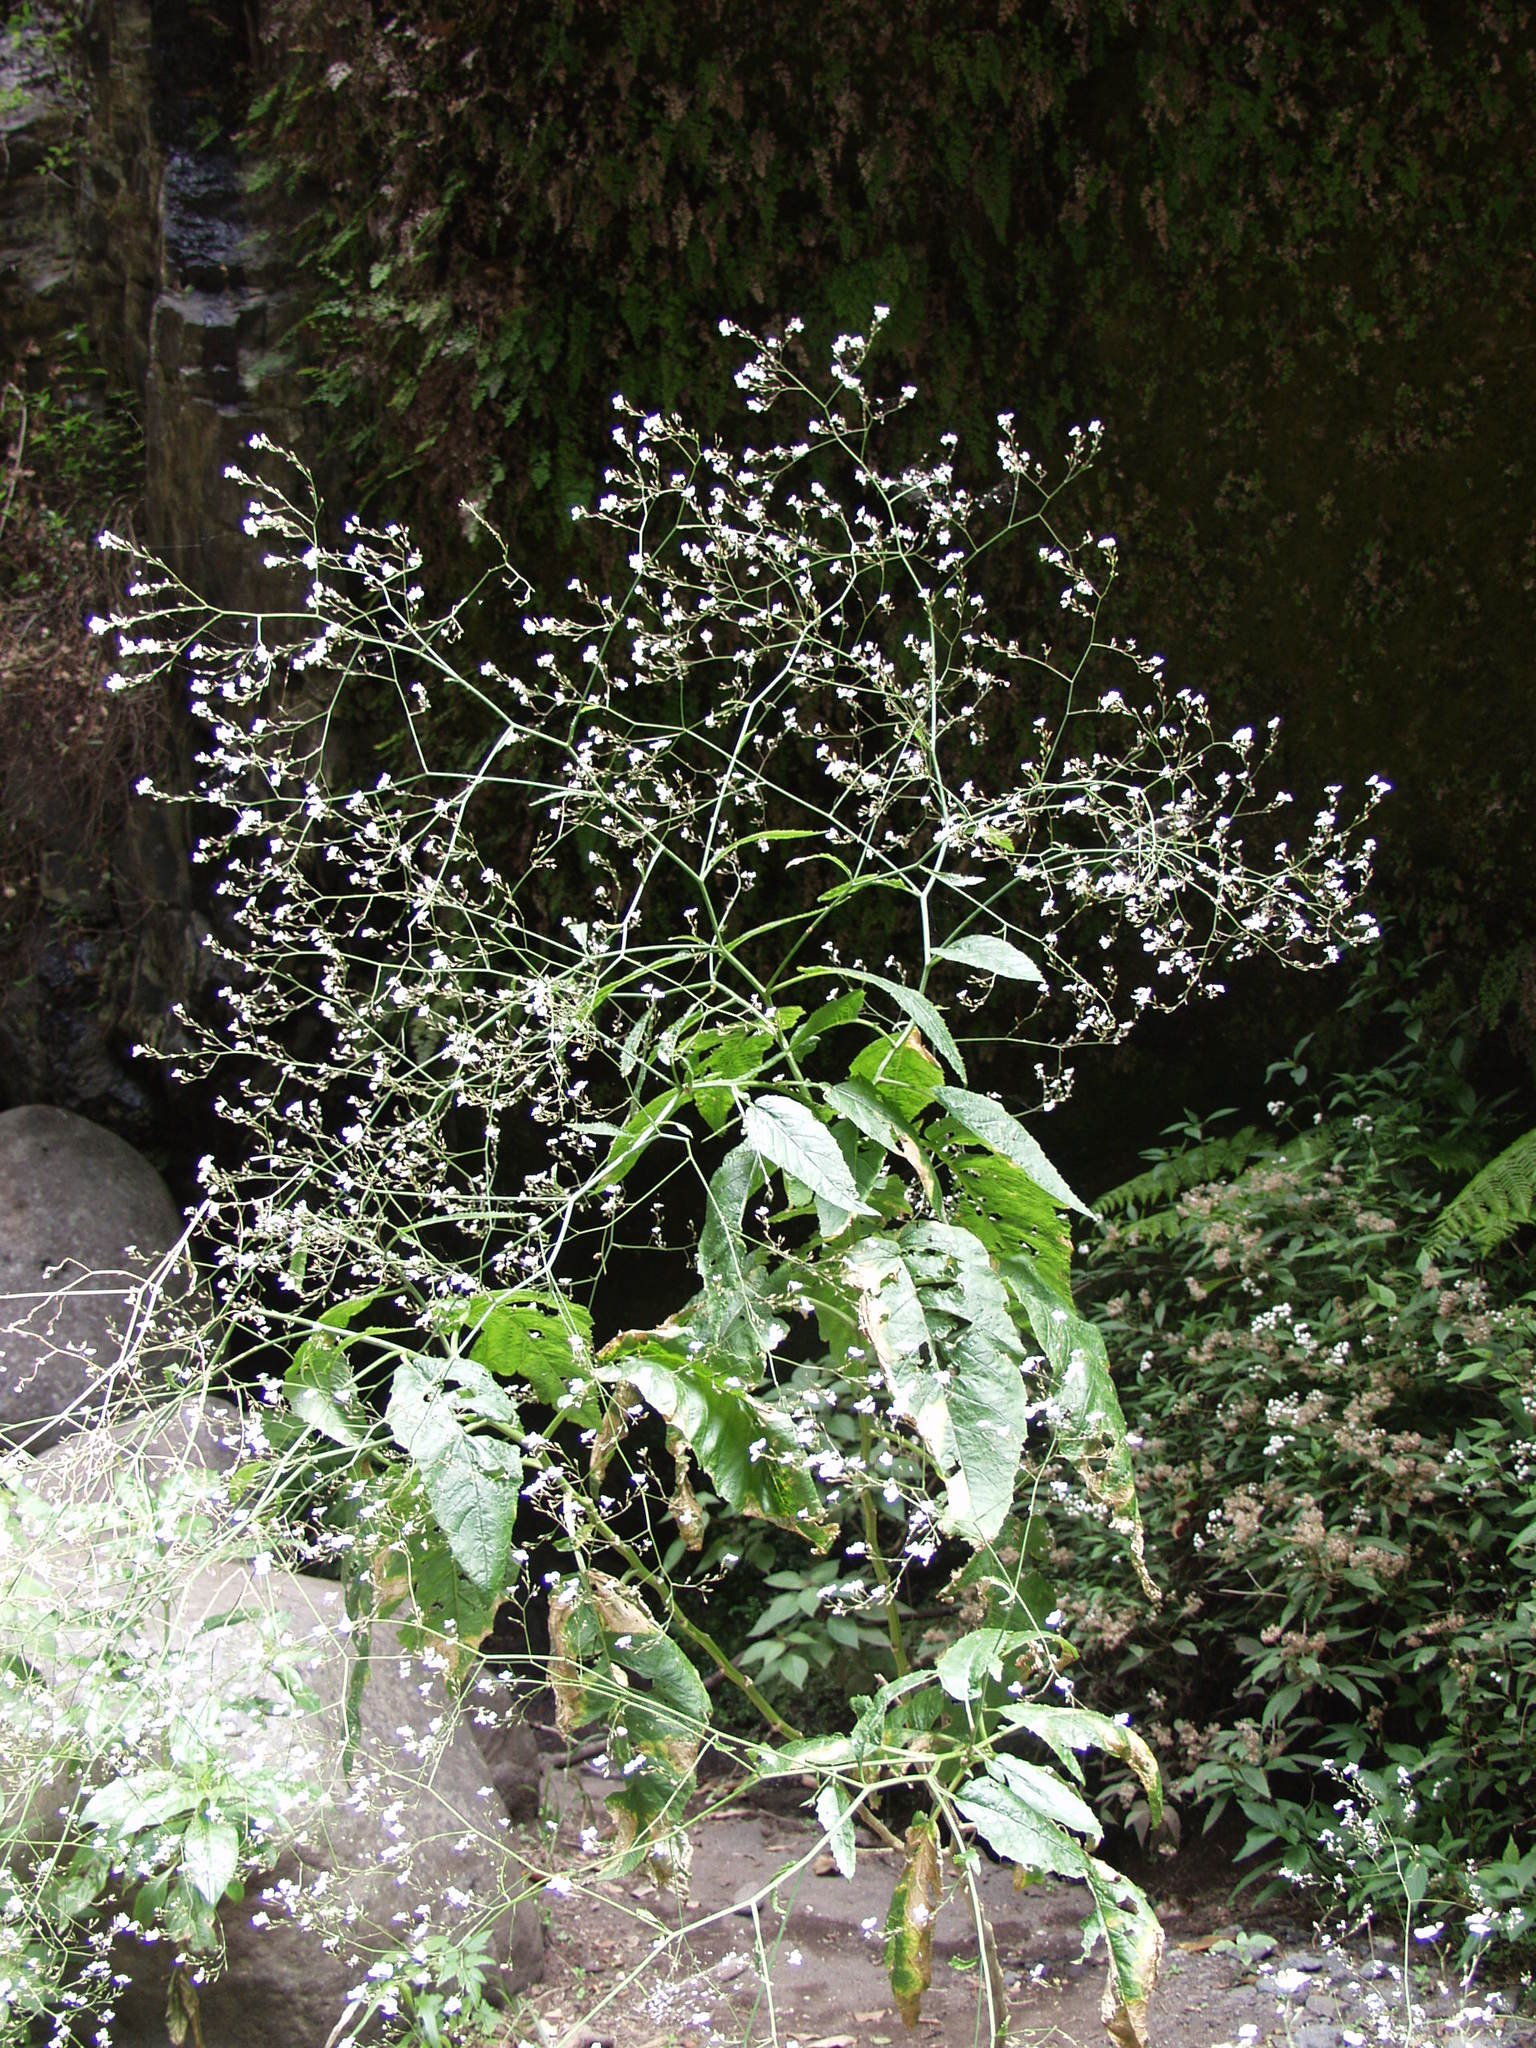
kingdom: Plantae
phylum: Tracheophyta
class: Magnoliopsida
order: Brassicales
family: Brassicaceae
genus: Crambe
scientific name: Crambe strigosa
